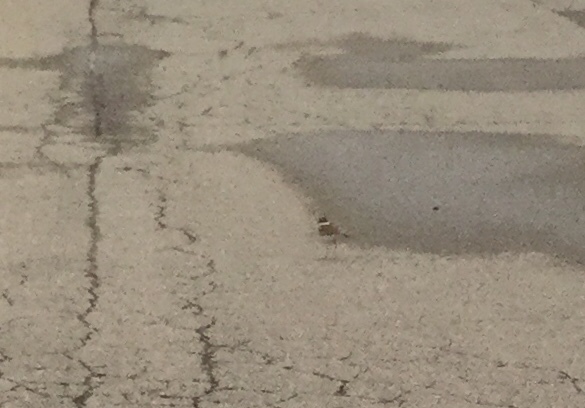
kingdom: Animalia
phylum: Chordata
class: Aves
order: Charadriiformes
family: Charadriidae
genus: Charadrius
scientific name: Charadrius vociferus
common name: Killdeer
